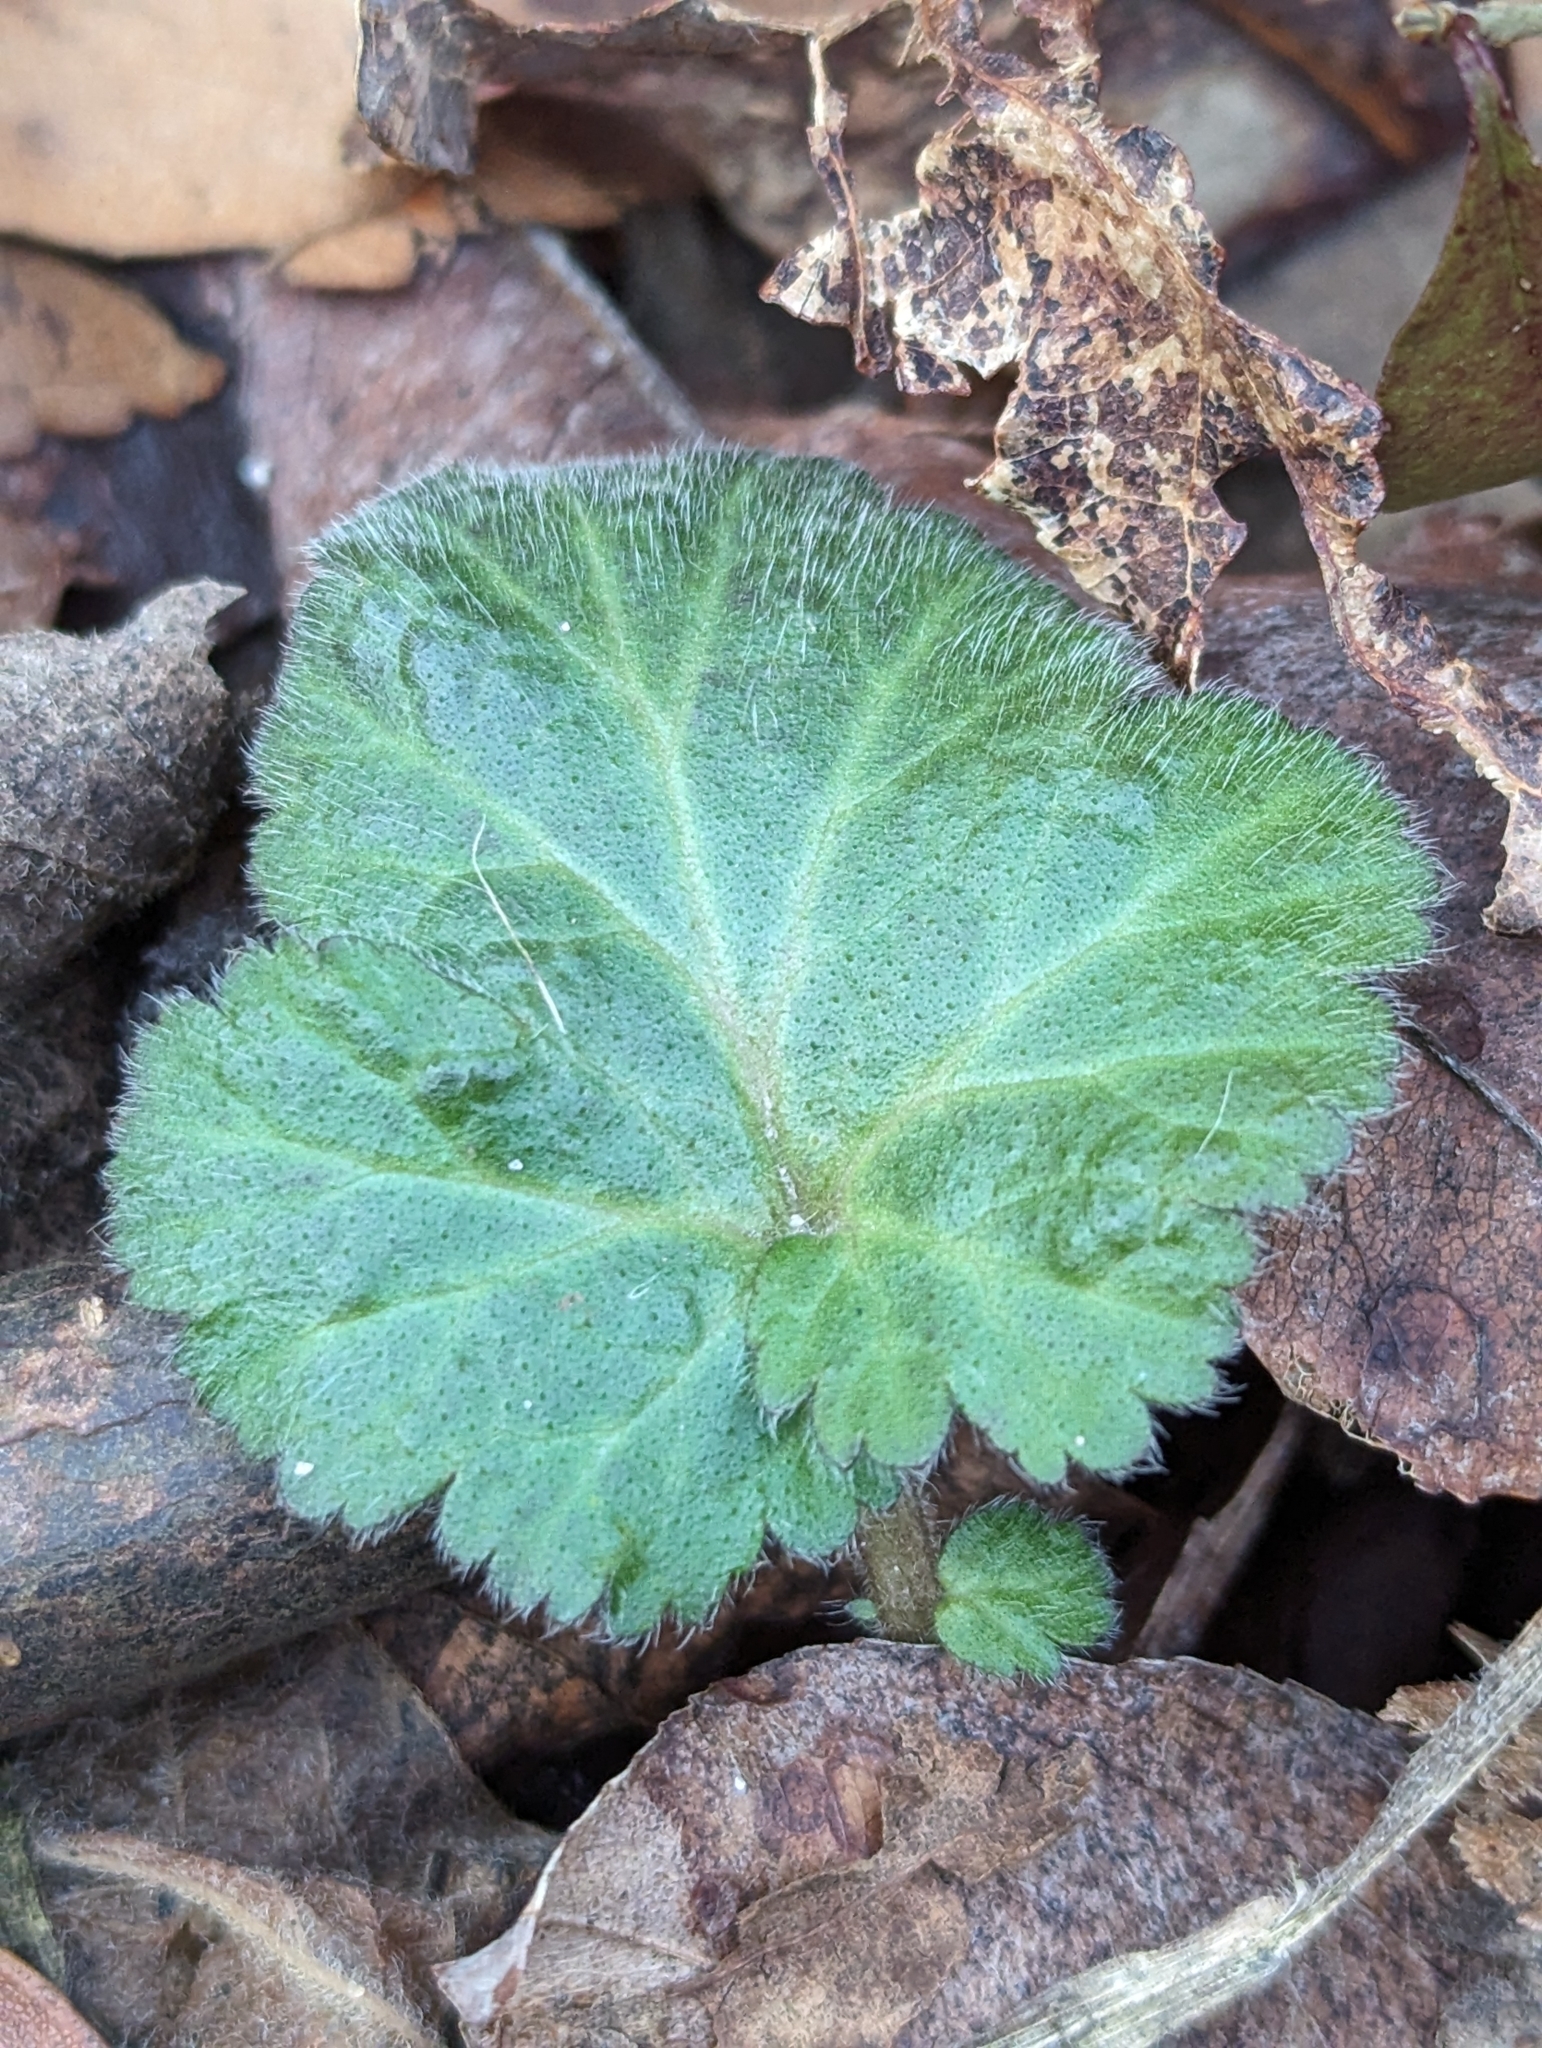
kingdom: Plantae
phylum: Tracheophyta
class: Magnoliopsida
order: Rosales
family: Rosaceae
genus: Geum
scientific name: Geum canadense
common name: White avens
